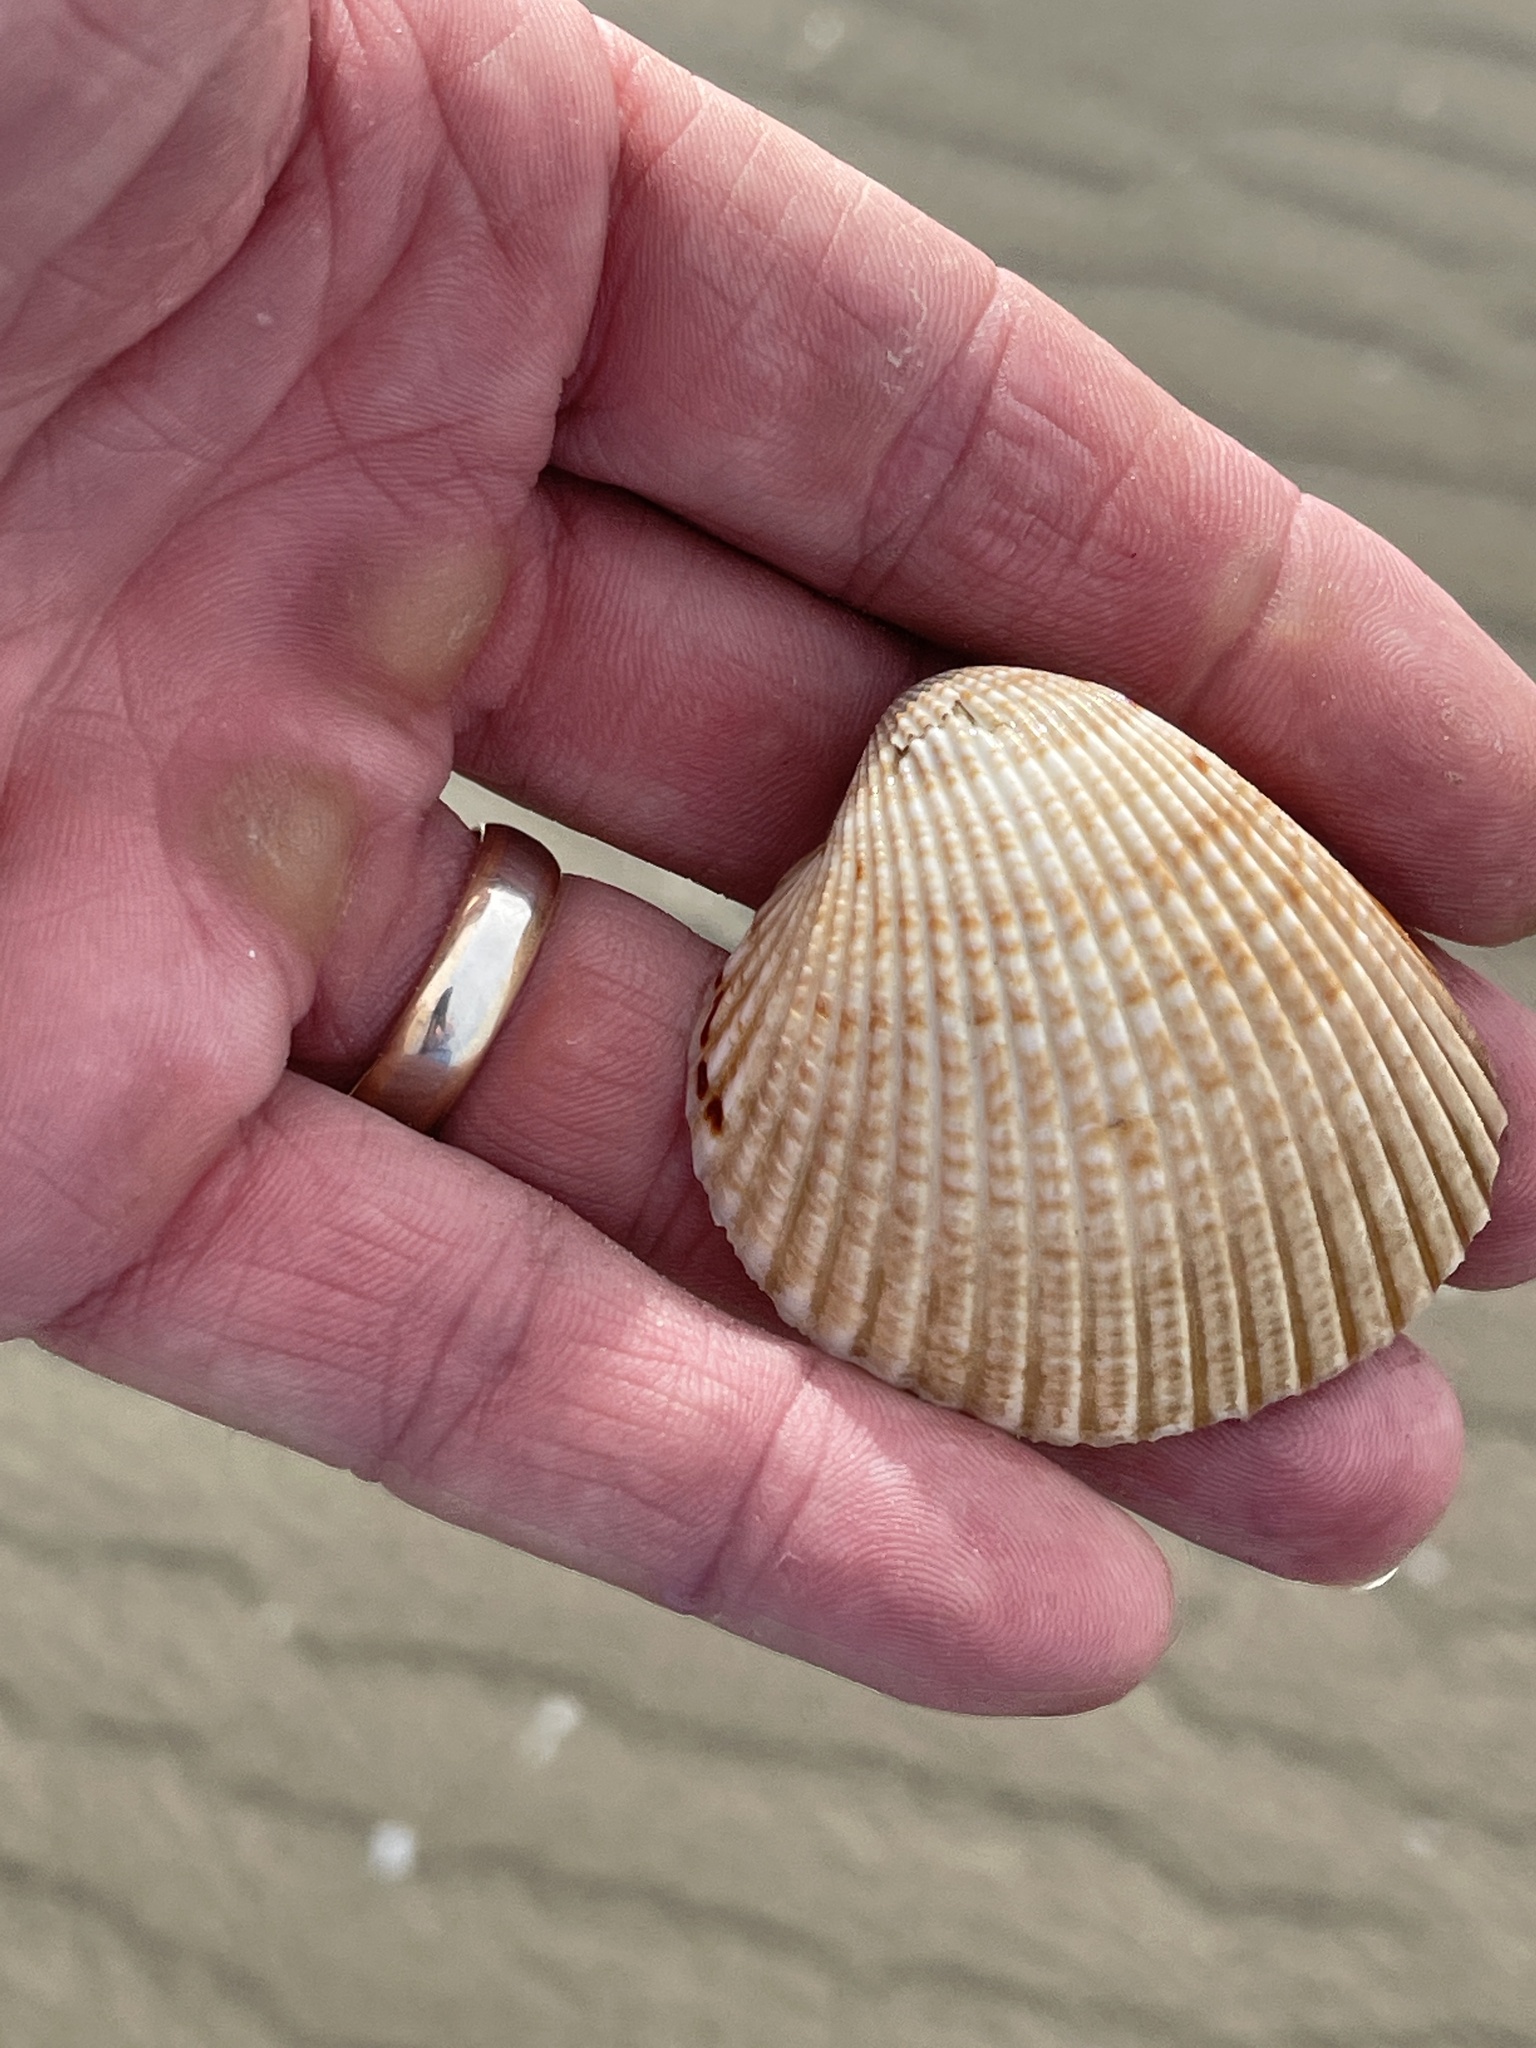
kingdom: Animalia
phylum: Mollusca
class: Bivalvia
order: Cardiida
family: Cardiidae
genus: Dinocardium
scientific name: Dinocardium robustum
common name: Atlantic giant cockle
